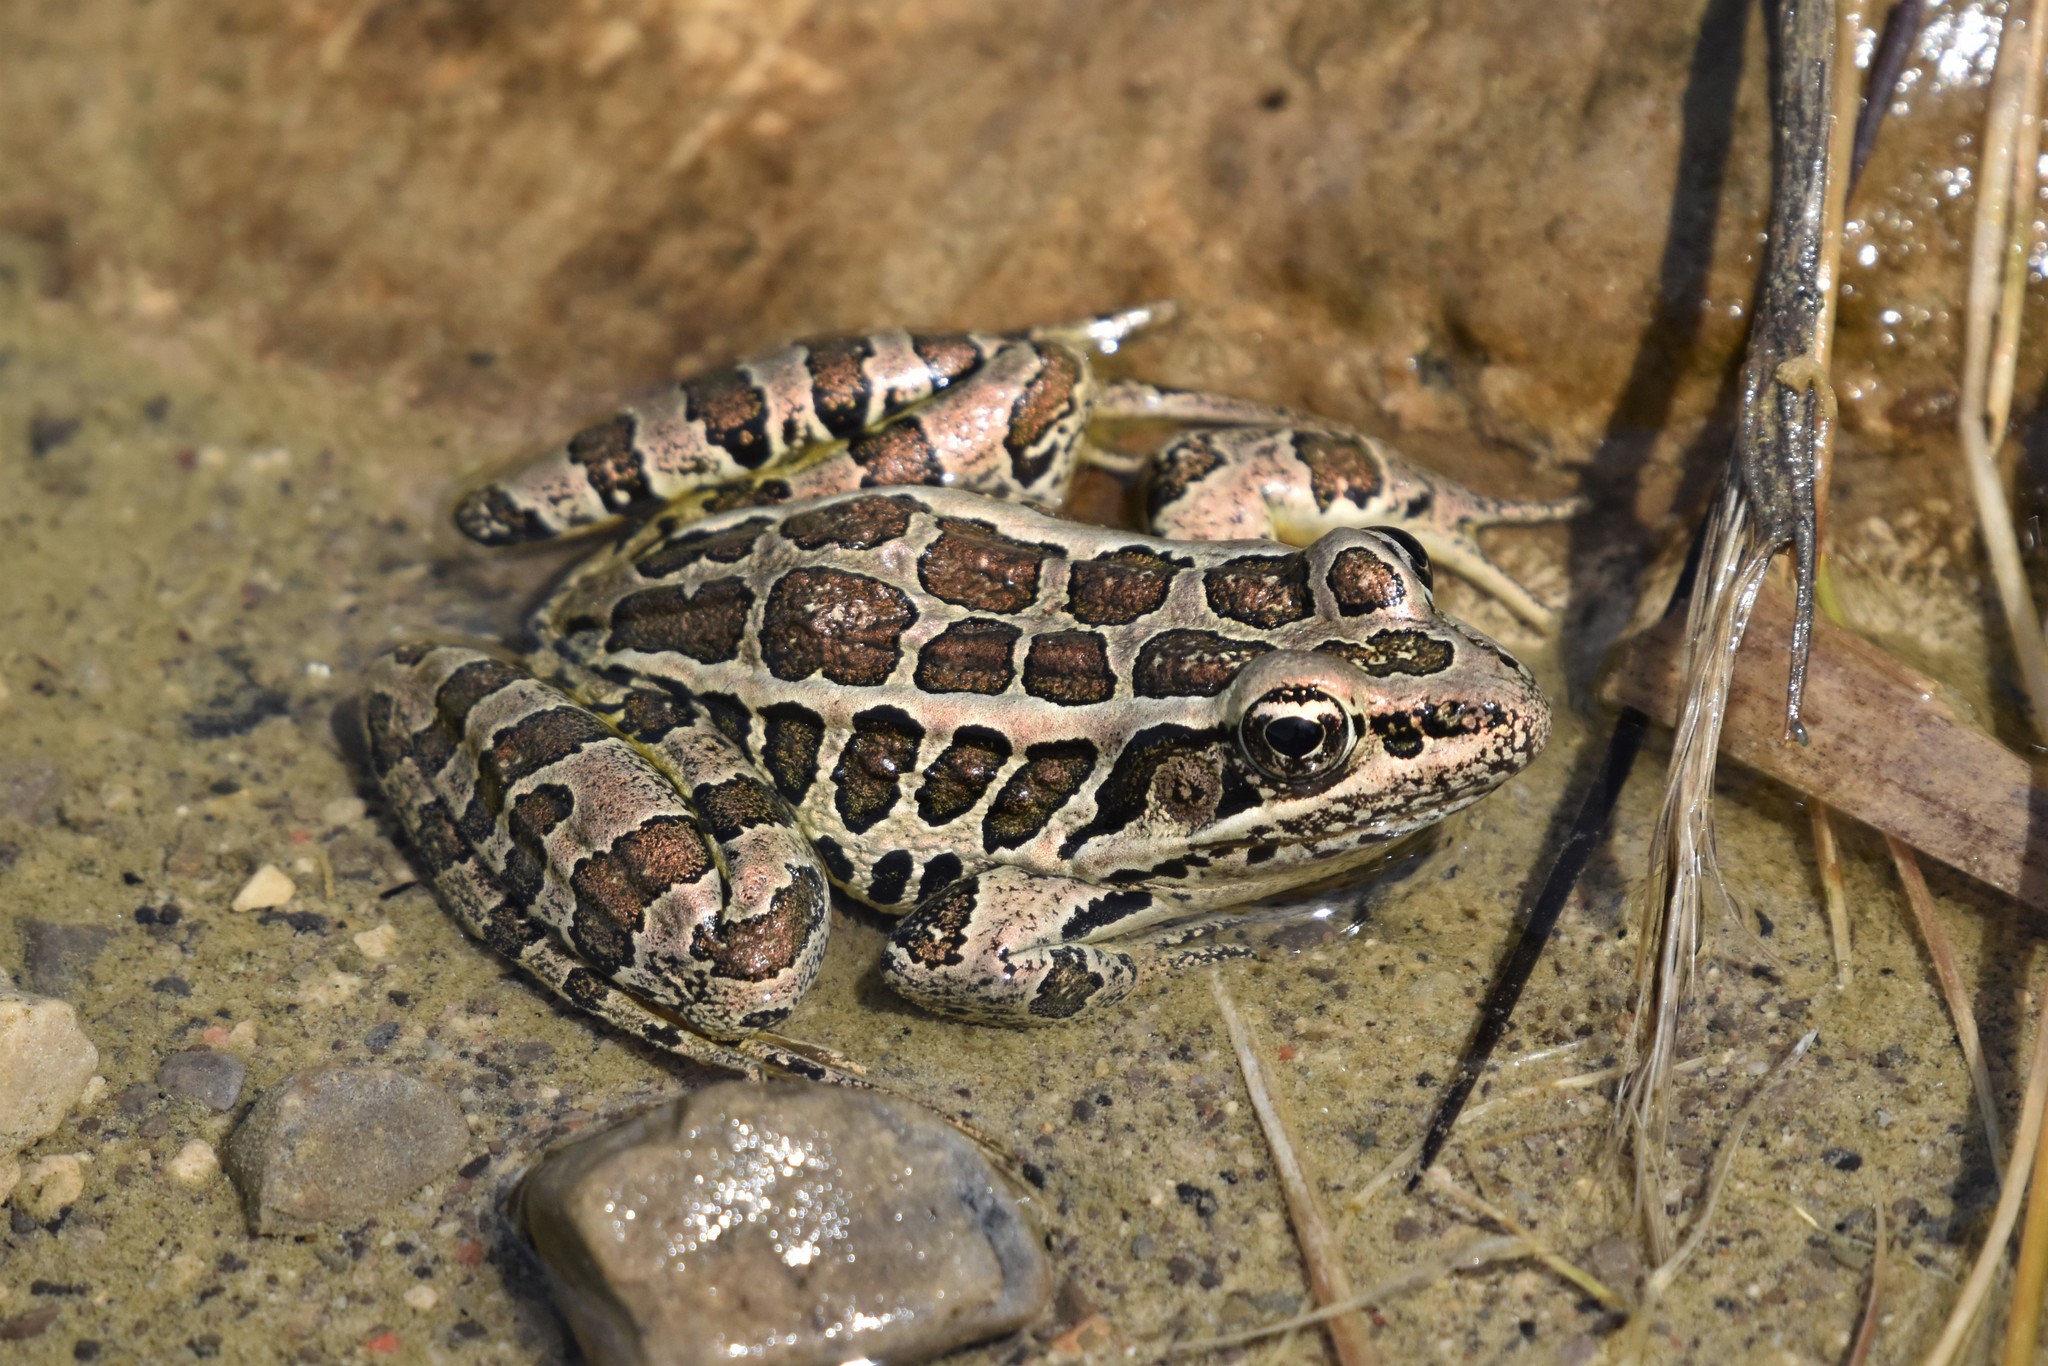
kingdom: Animalia
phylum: Chordata
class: Amphibia
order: Anura
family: Ranidae
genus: Lithobates
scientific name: Lithobates palustris
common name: Pickerel frog
